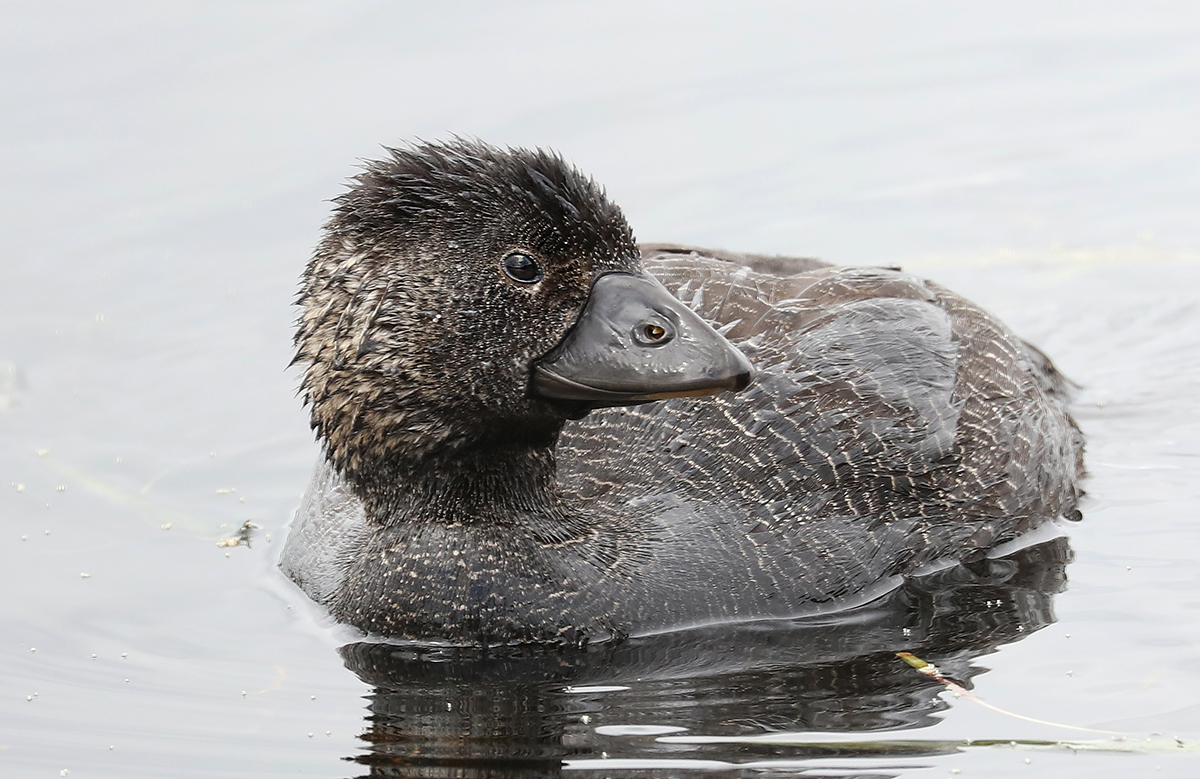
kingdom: Animalia
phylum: Chordata
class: Aves
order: Anseriformes
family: Anatidae
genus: Biziura
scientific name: Biziura lobata
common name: Musk duck
